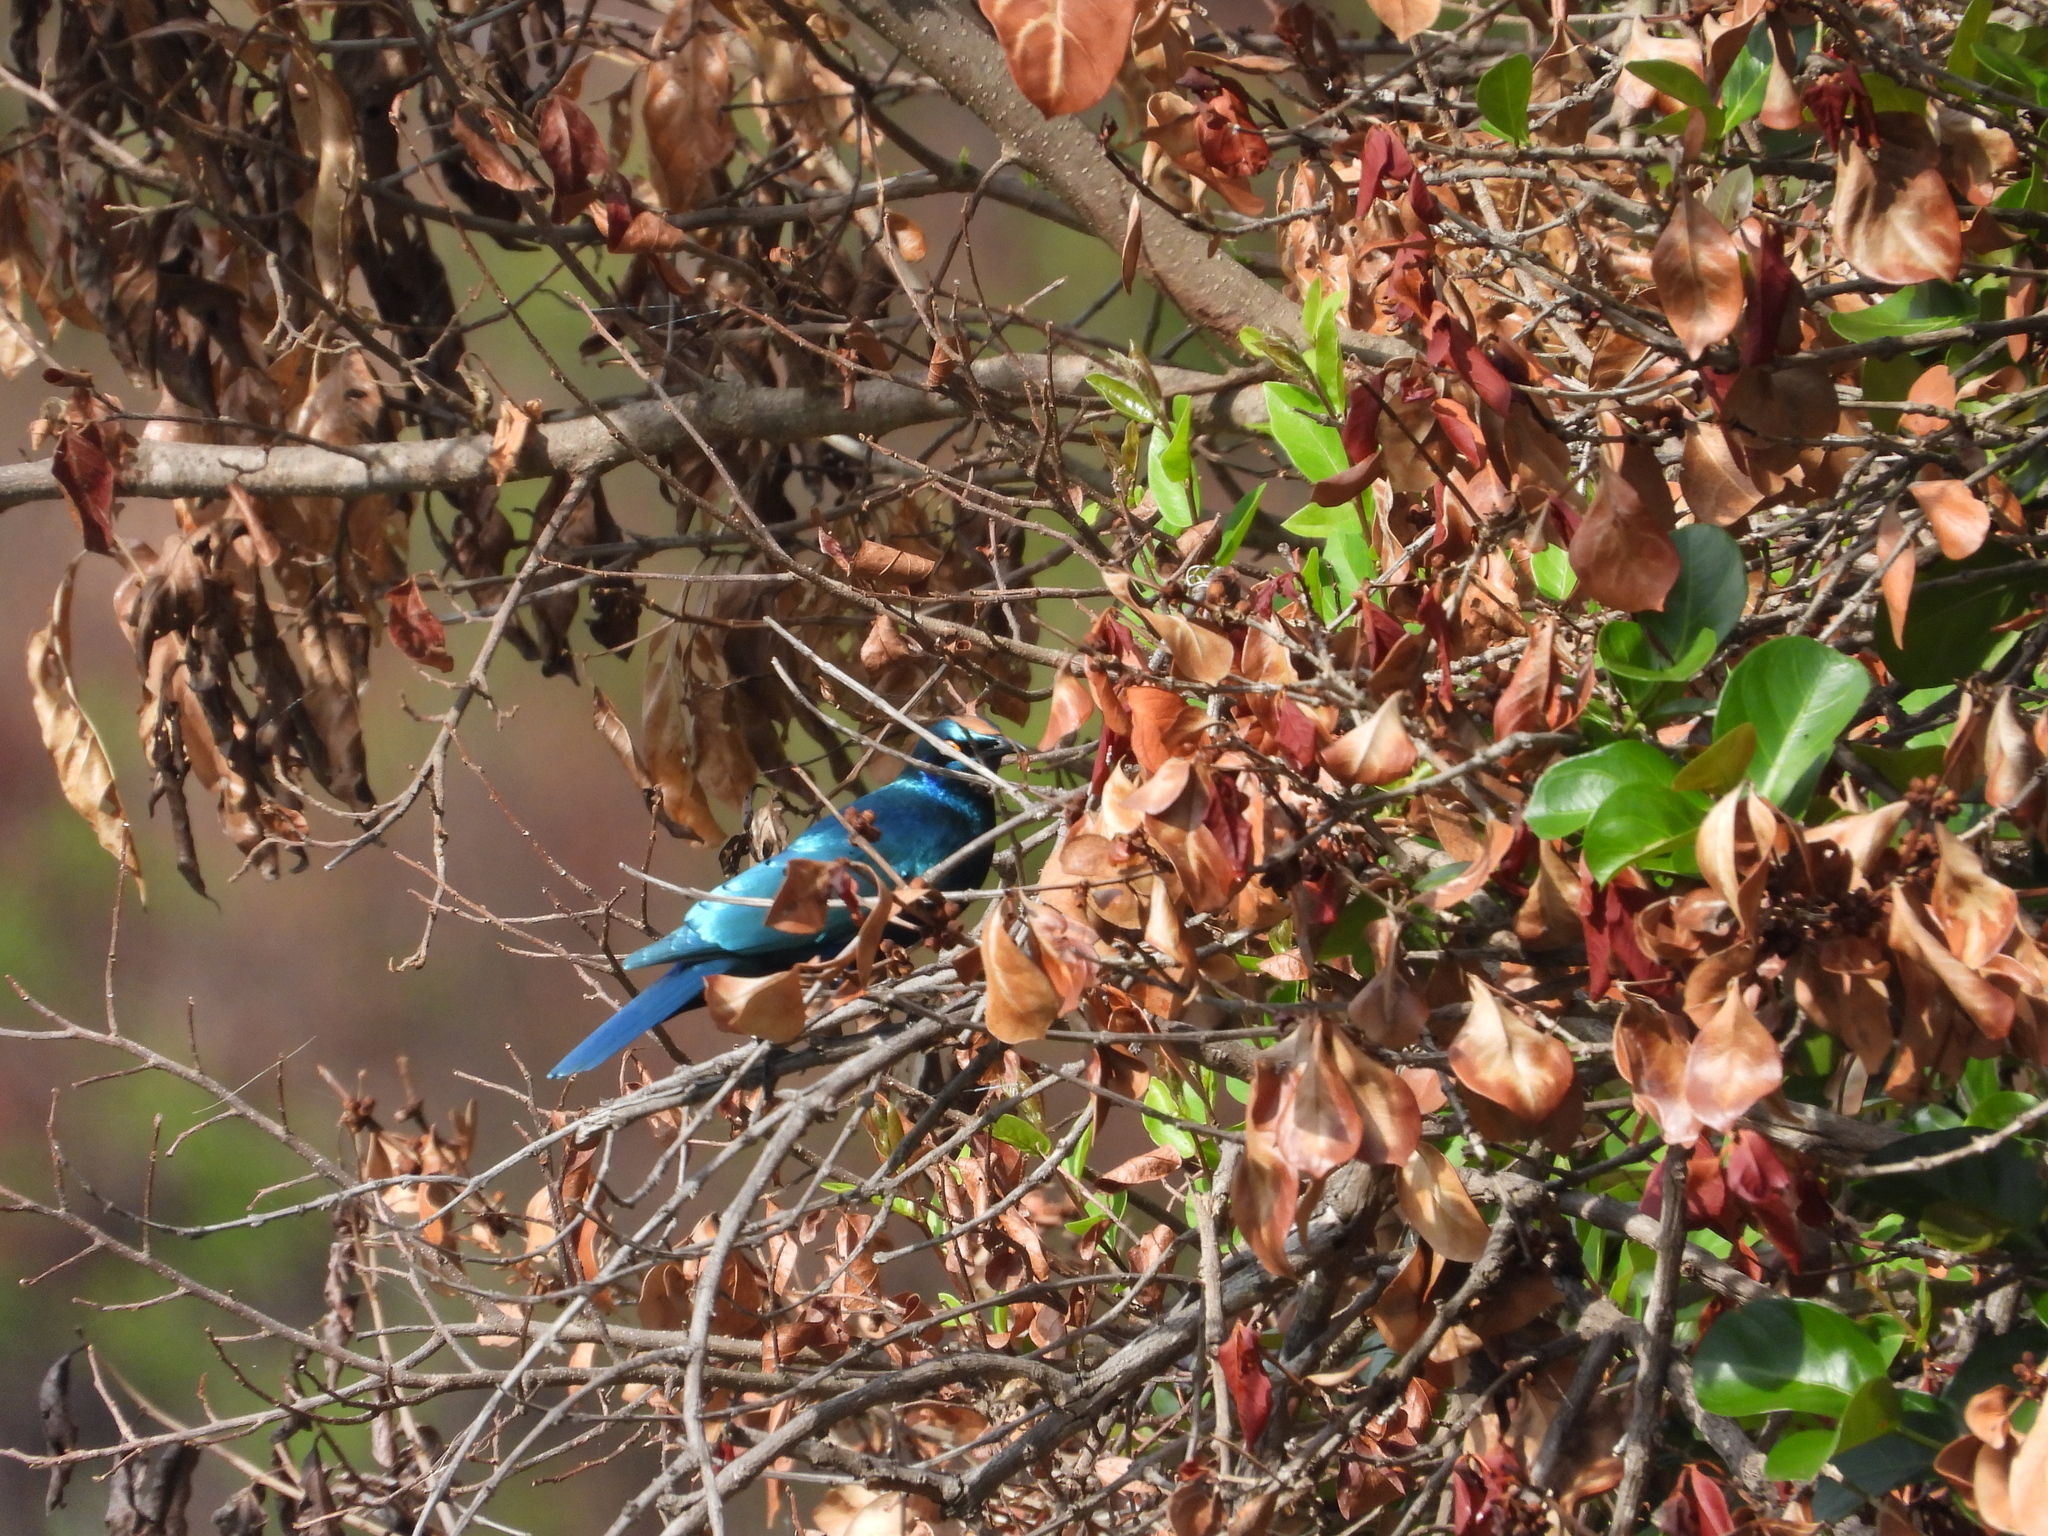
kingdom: Animalia
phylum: Chordata
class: Aves
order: Passeriformes
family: Sturnidae
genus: Lamprotornis
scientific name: Lamprotornis chalybaeus
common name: Greater blue-eared starling
